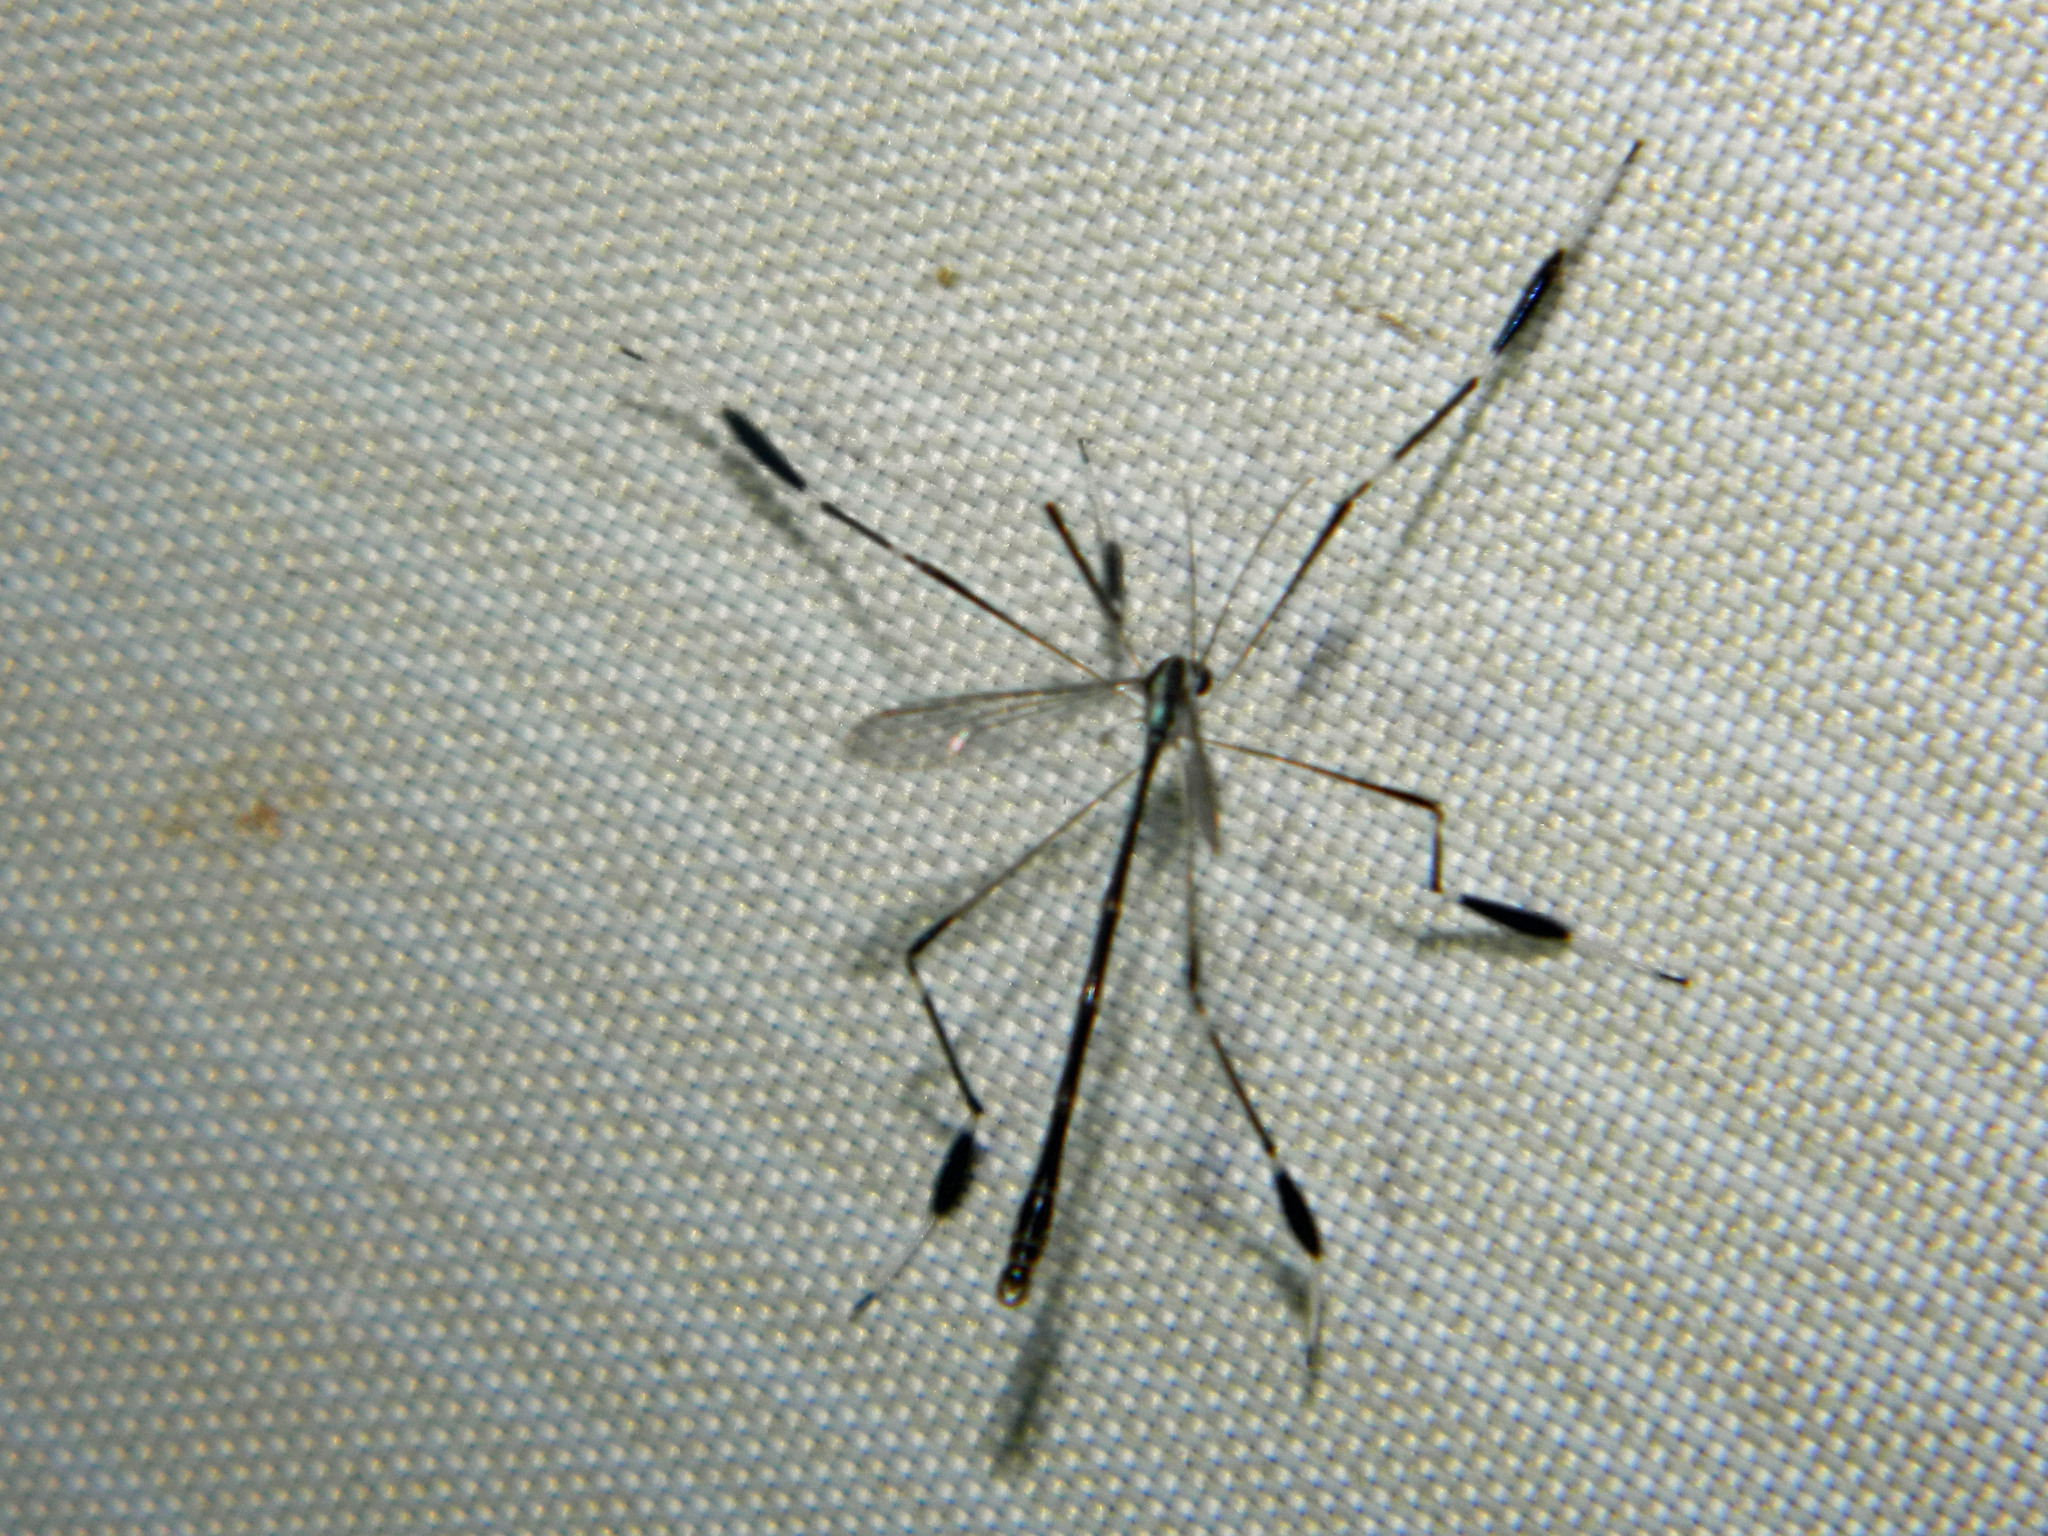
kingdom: Animalia
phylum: Arthropoda
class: Insecta
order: Diptera
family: Ptychopteridae
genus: Bittacomorpha
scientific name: Bittacomorpha clavipes
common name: Eastern phantom crane fly
